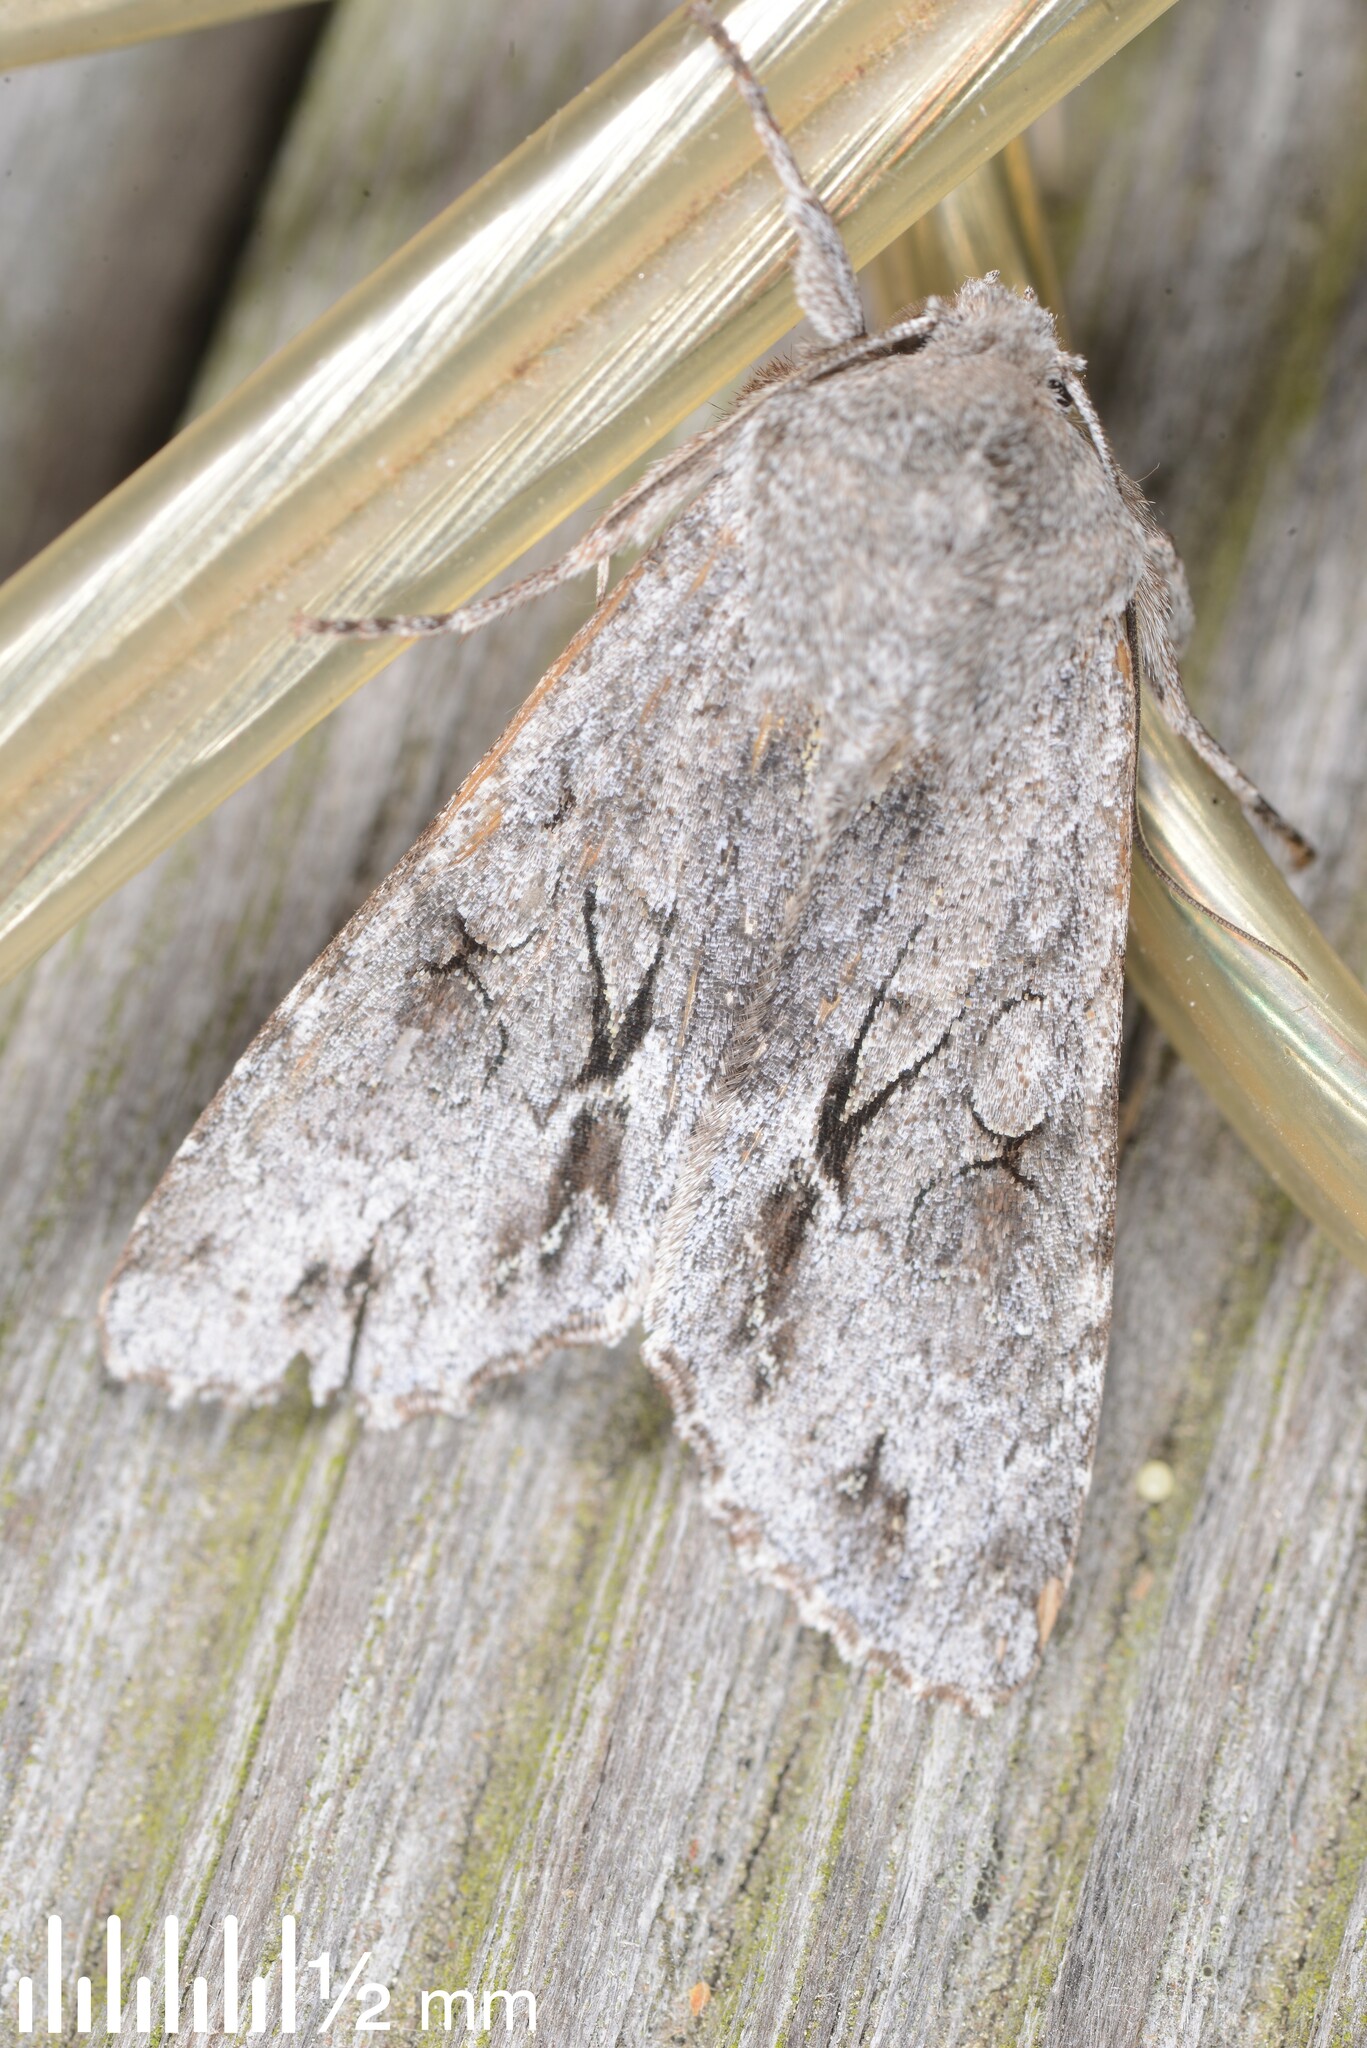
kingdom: Animalia
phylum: Arthropoda
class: Insecta
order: Lepidoptera
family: Noctuidae
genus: Ichneutica
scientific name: Ichneutica
